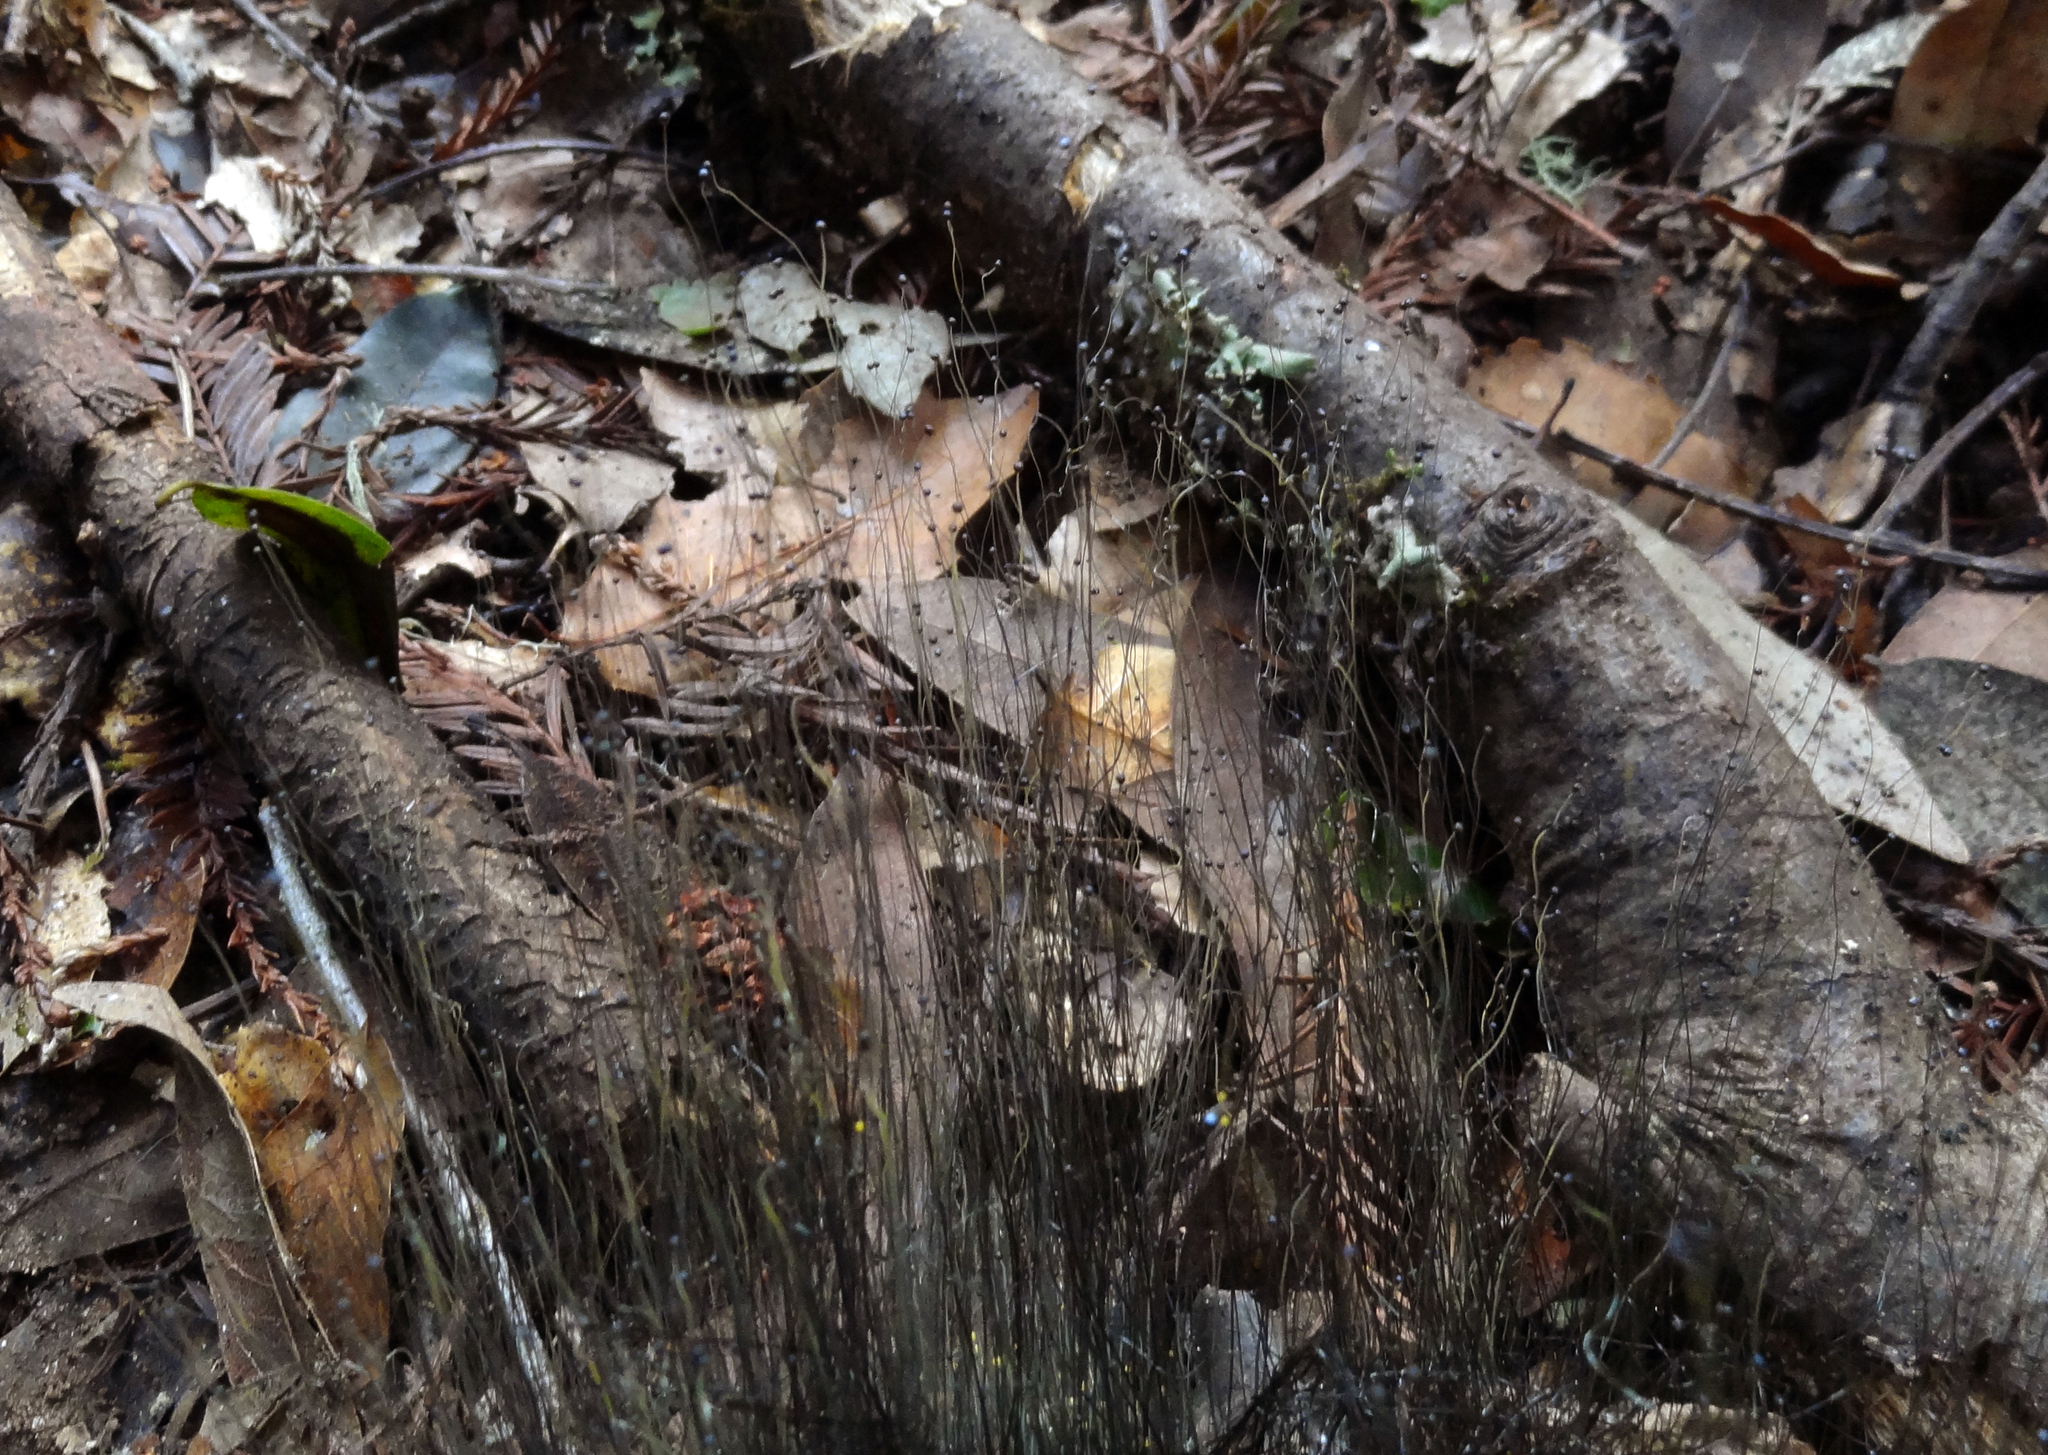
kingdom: Fungi
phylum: Mucoromycota
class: Mucoromycetes
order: Mucorales
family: Phycomycetaceae
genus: Phycomyces
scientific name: Phycomyces blakesleeanus
